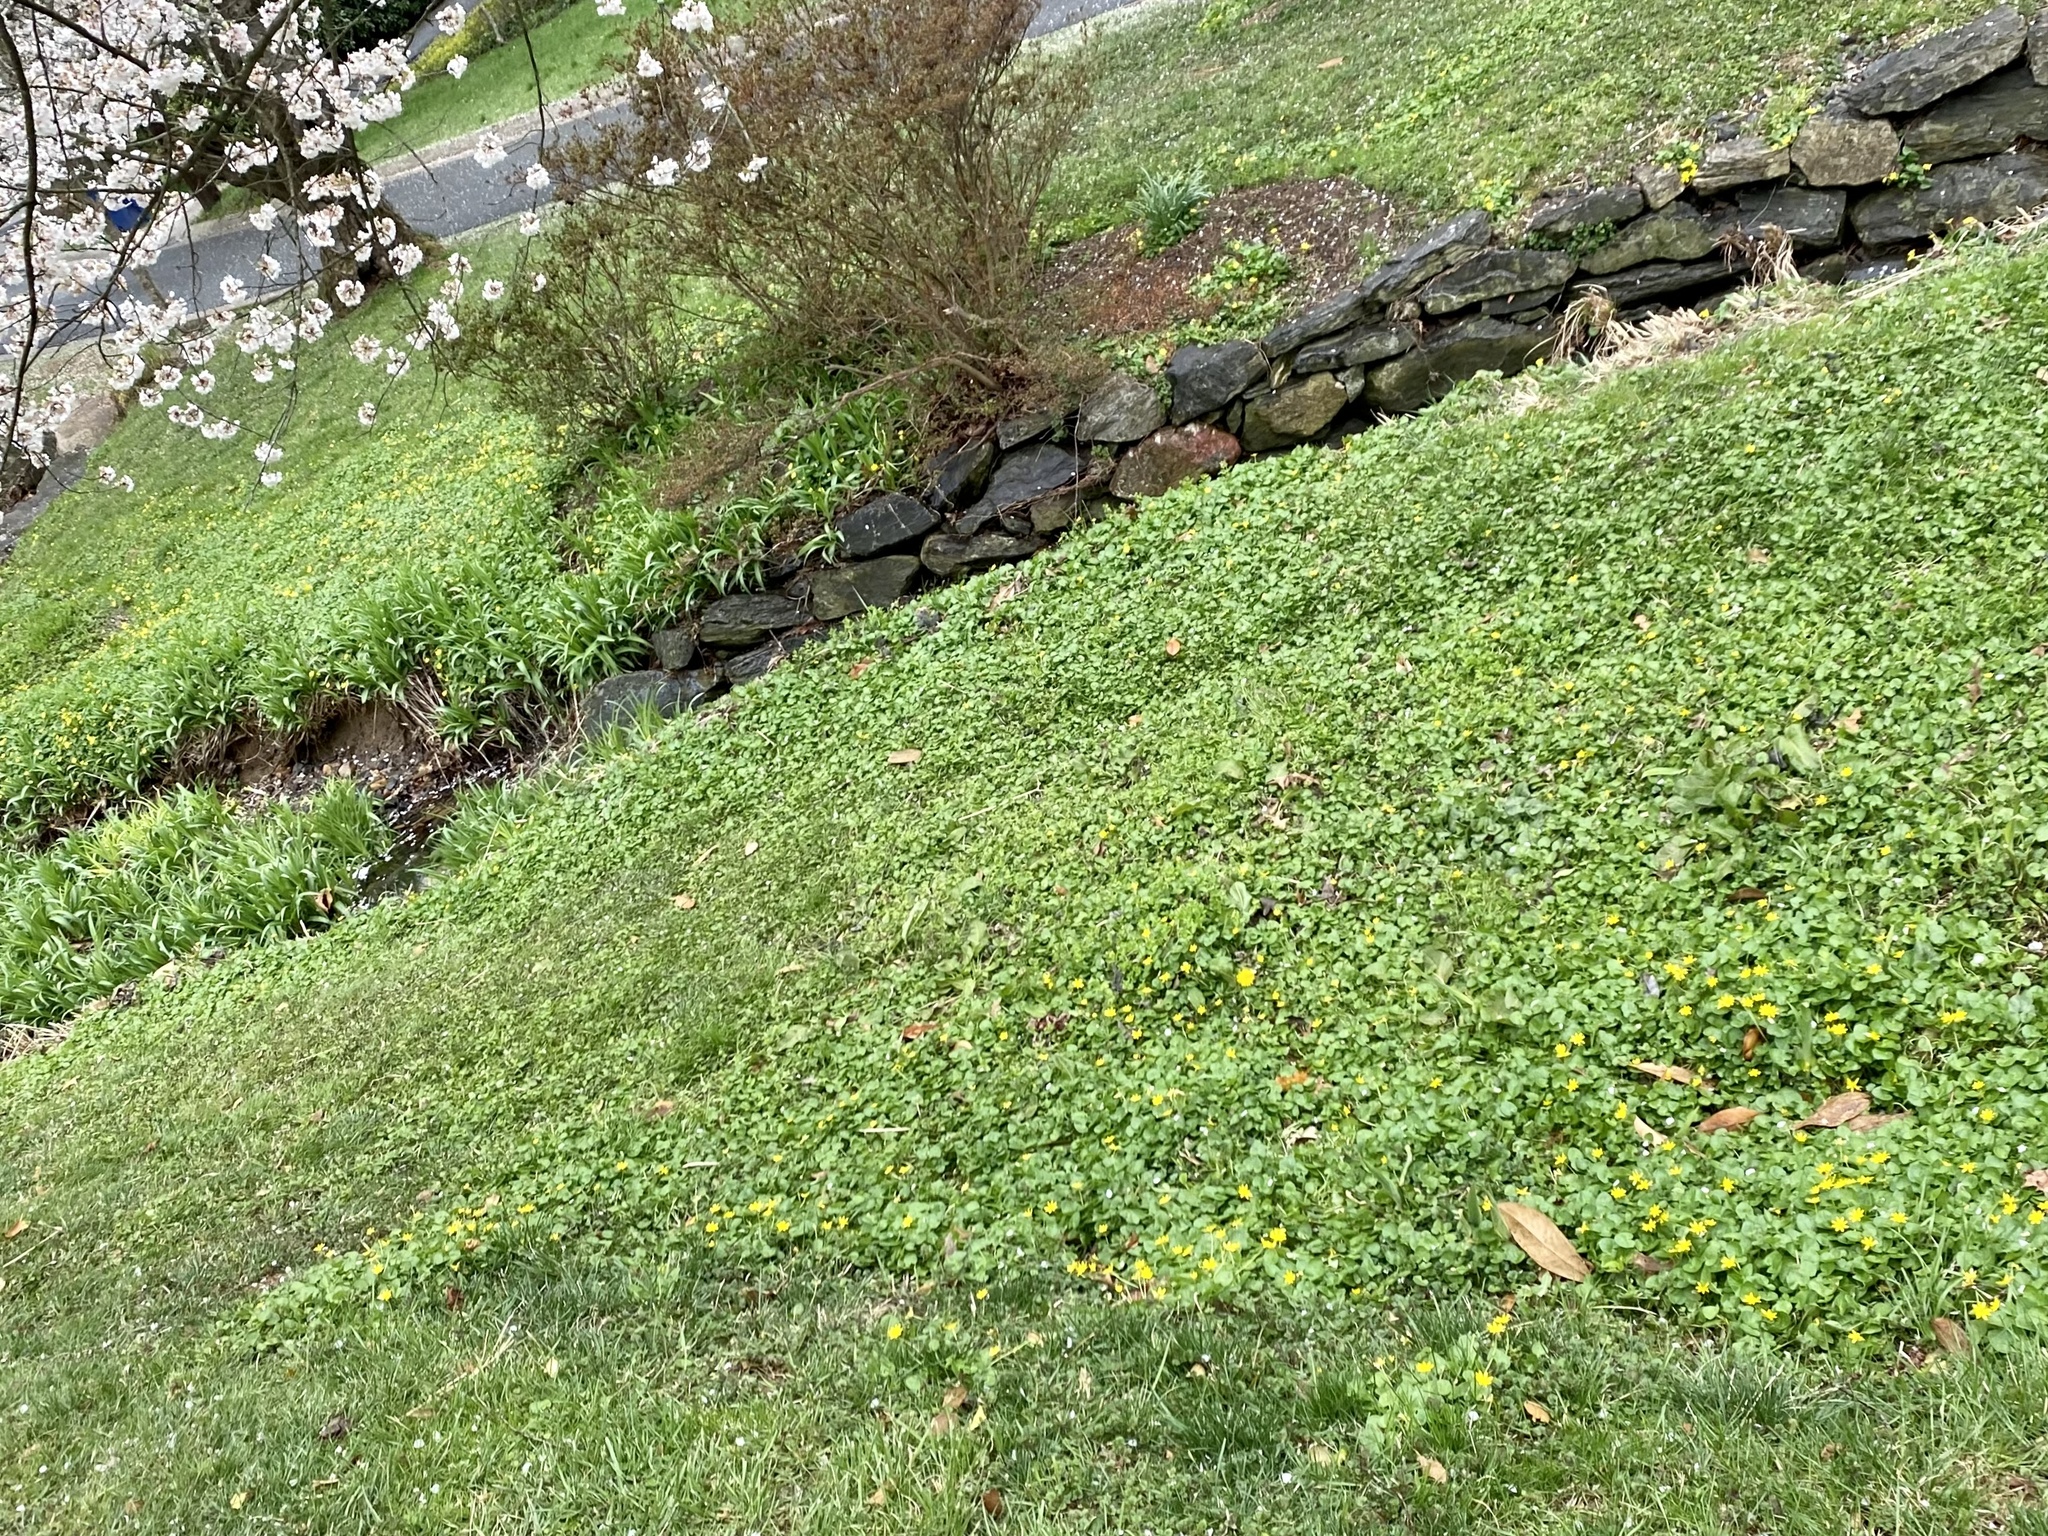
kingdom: Plantae
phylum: Tracheophyta
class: Magnoliopsida
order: Ranunculales
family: Ranunculaceae
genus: Ficaria
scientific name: Ficaria verna
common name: Lesser celandine
